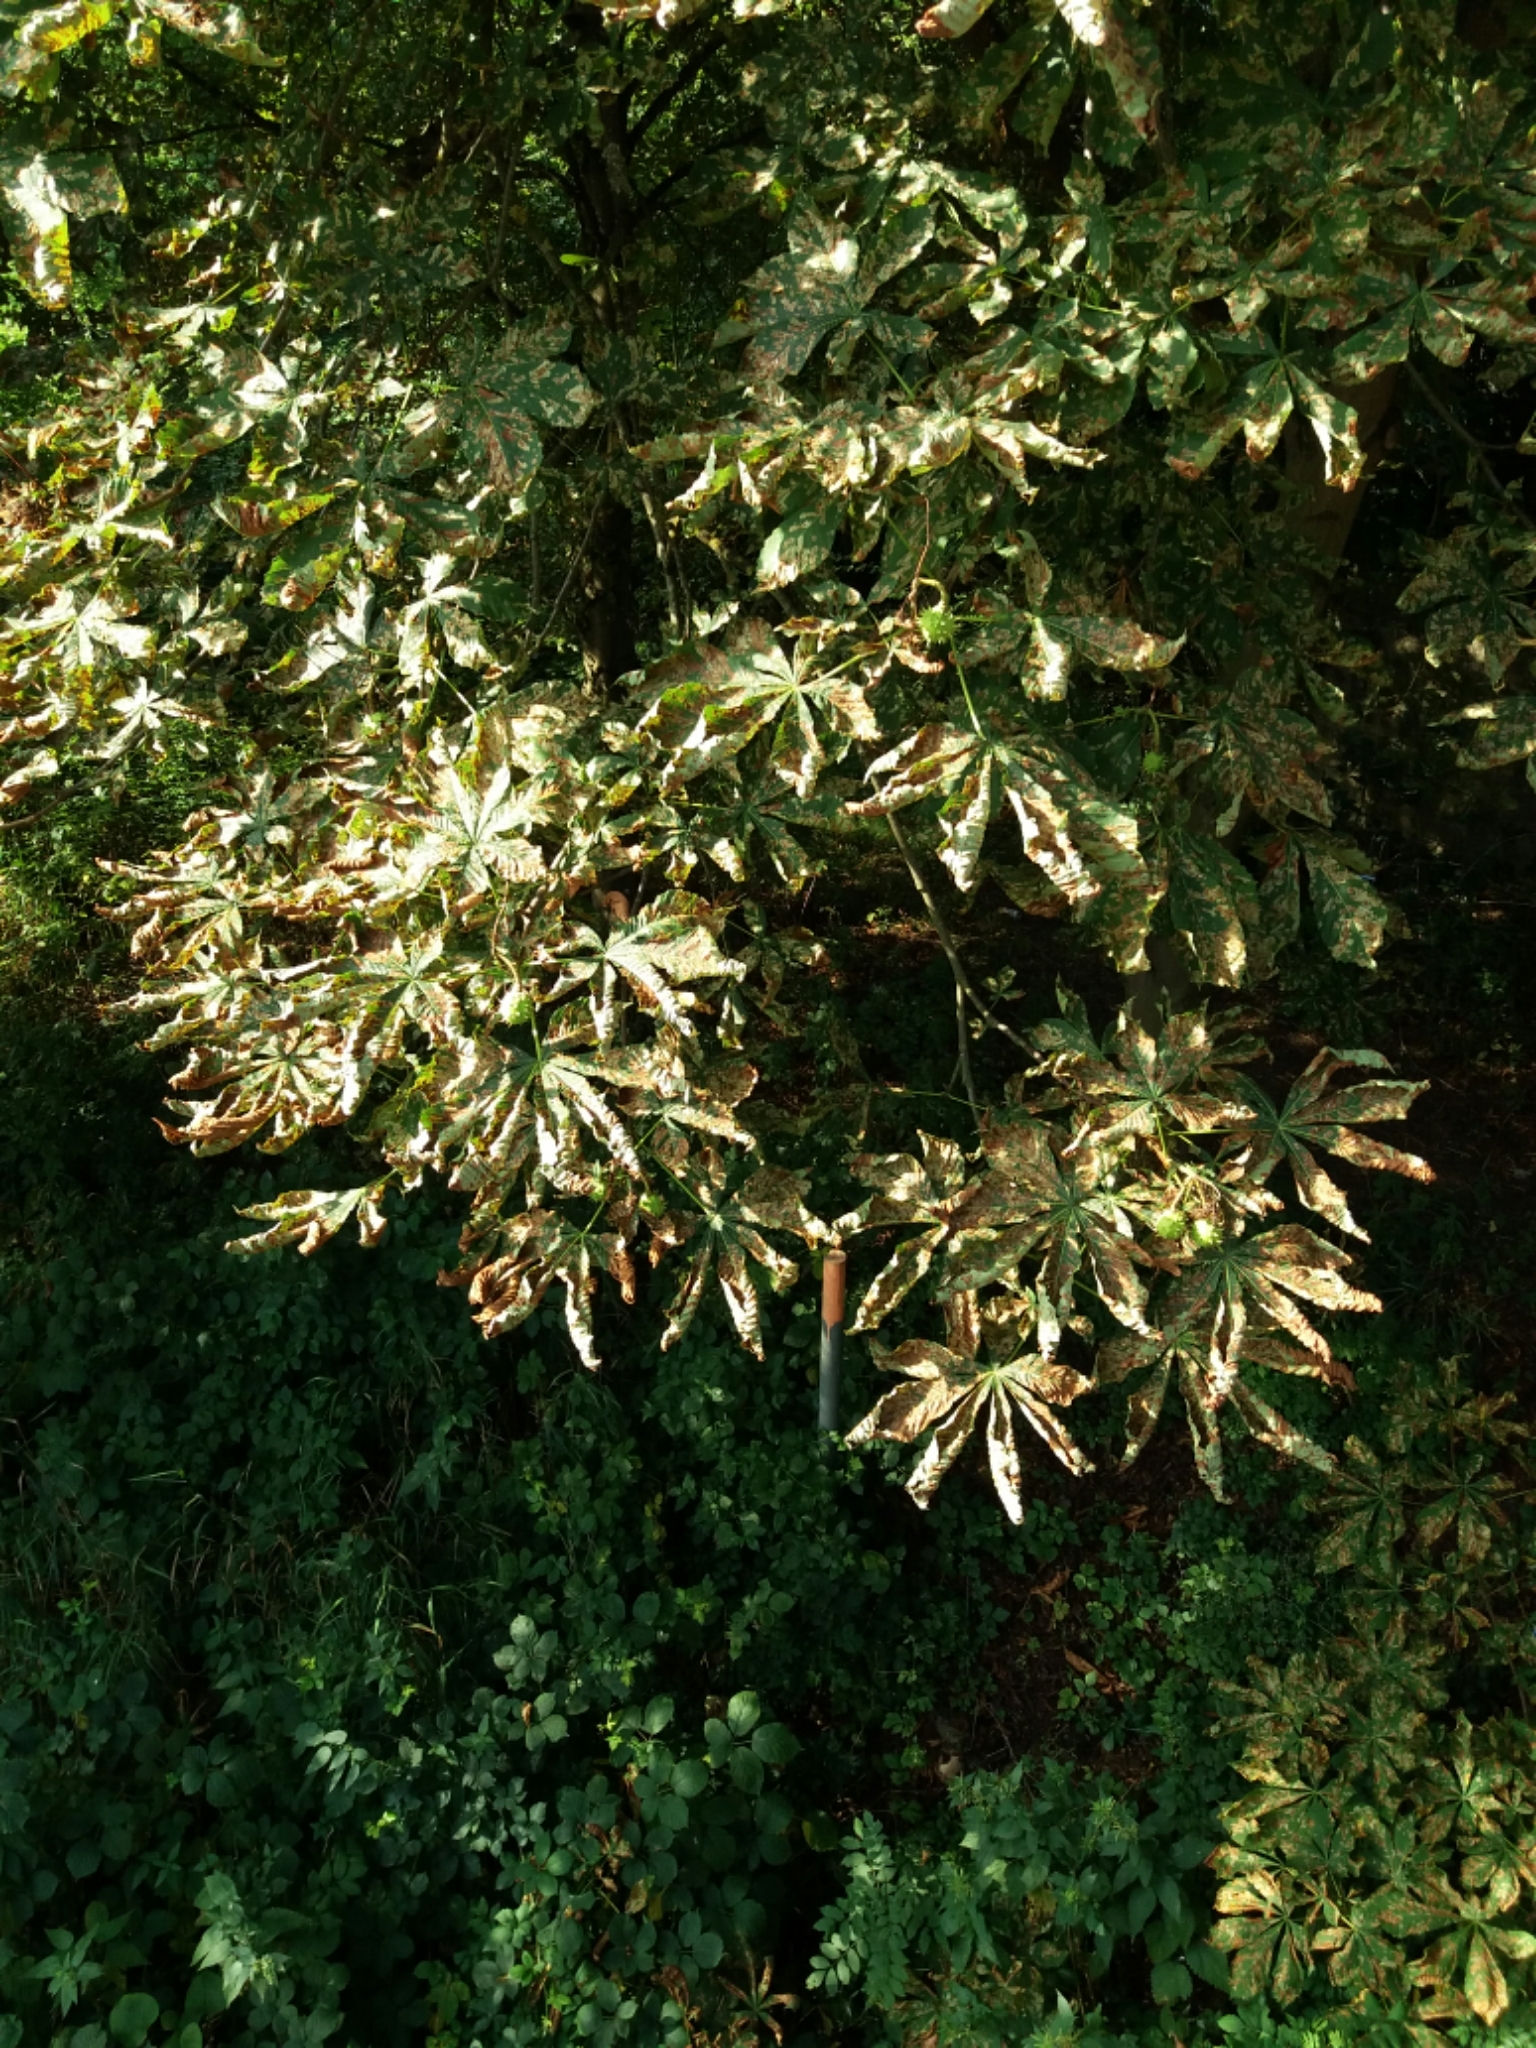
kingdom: Plantae
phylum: Tracheophyta
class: Magnoliopsida
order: Sapindales
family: Sapindaceae
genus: Aesculus
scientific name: Aesculus hippocastanum
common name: Horse-chestnut
